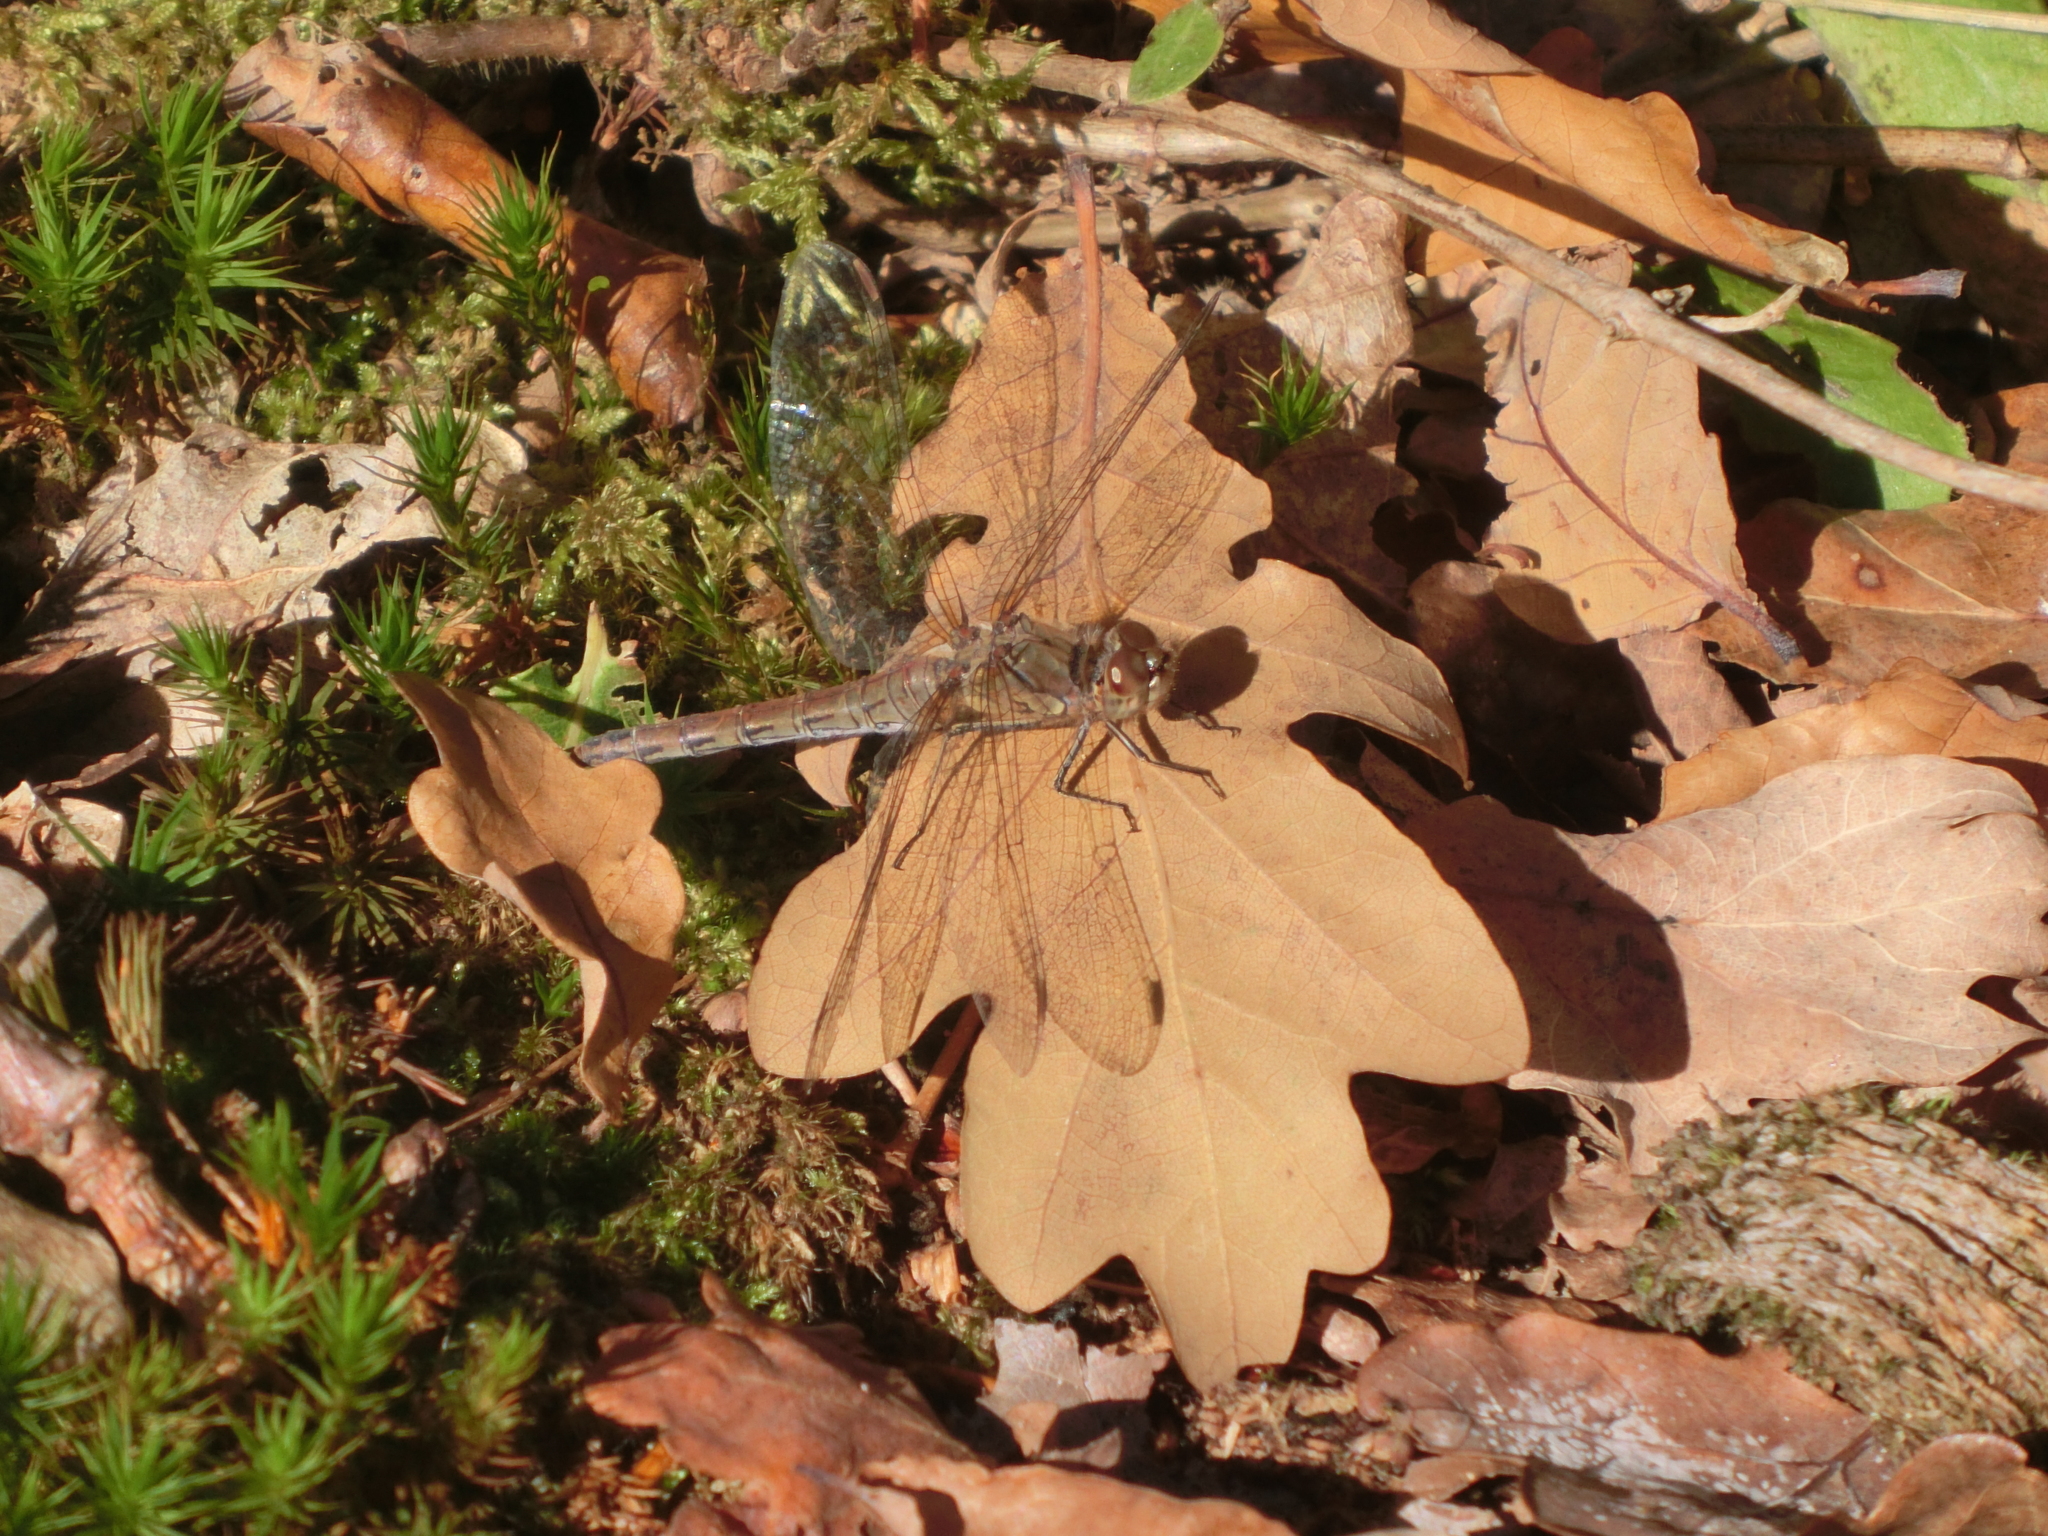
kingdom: Animalia
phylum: Arthropoda
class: Insecta
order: Odonata
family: Libellulidae
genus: Sympetrum
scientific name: Sympetrum striolatum
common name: Common darter
